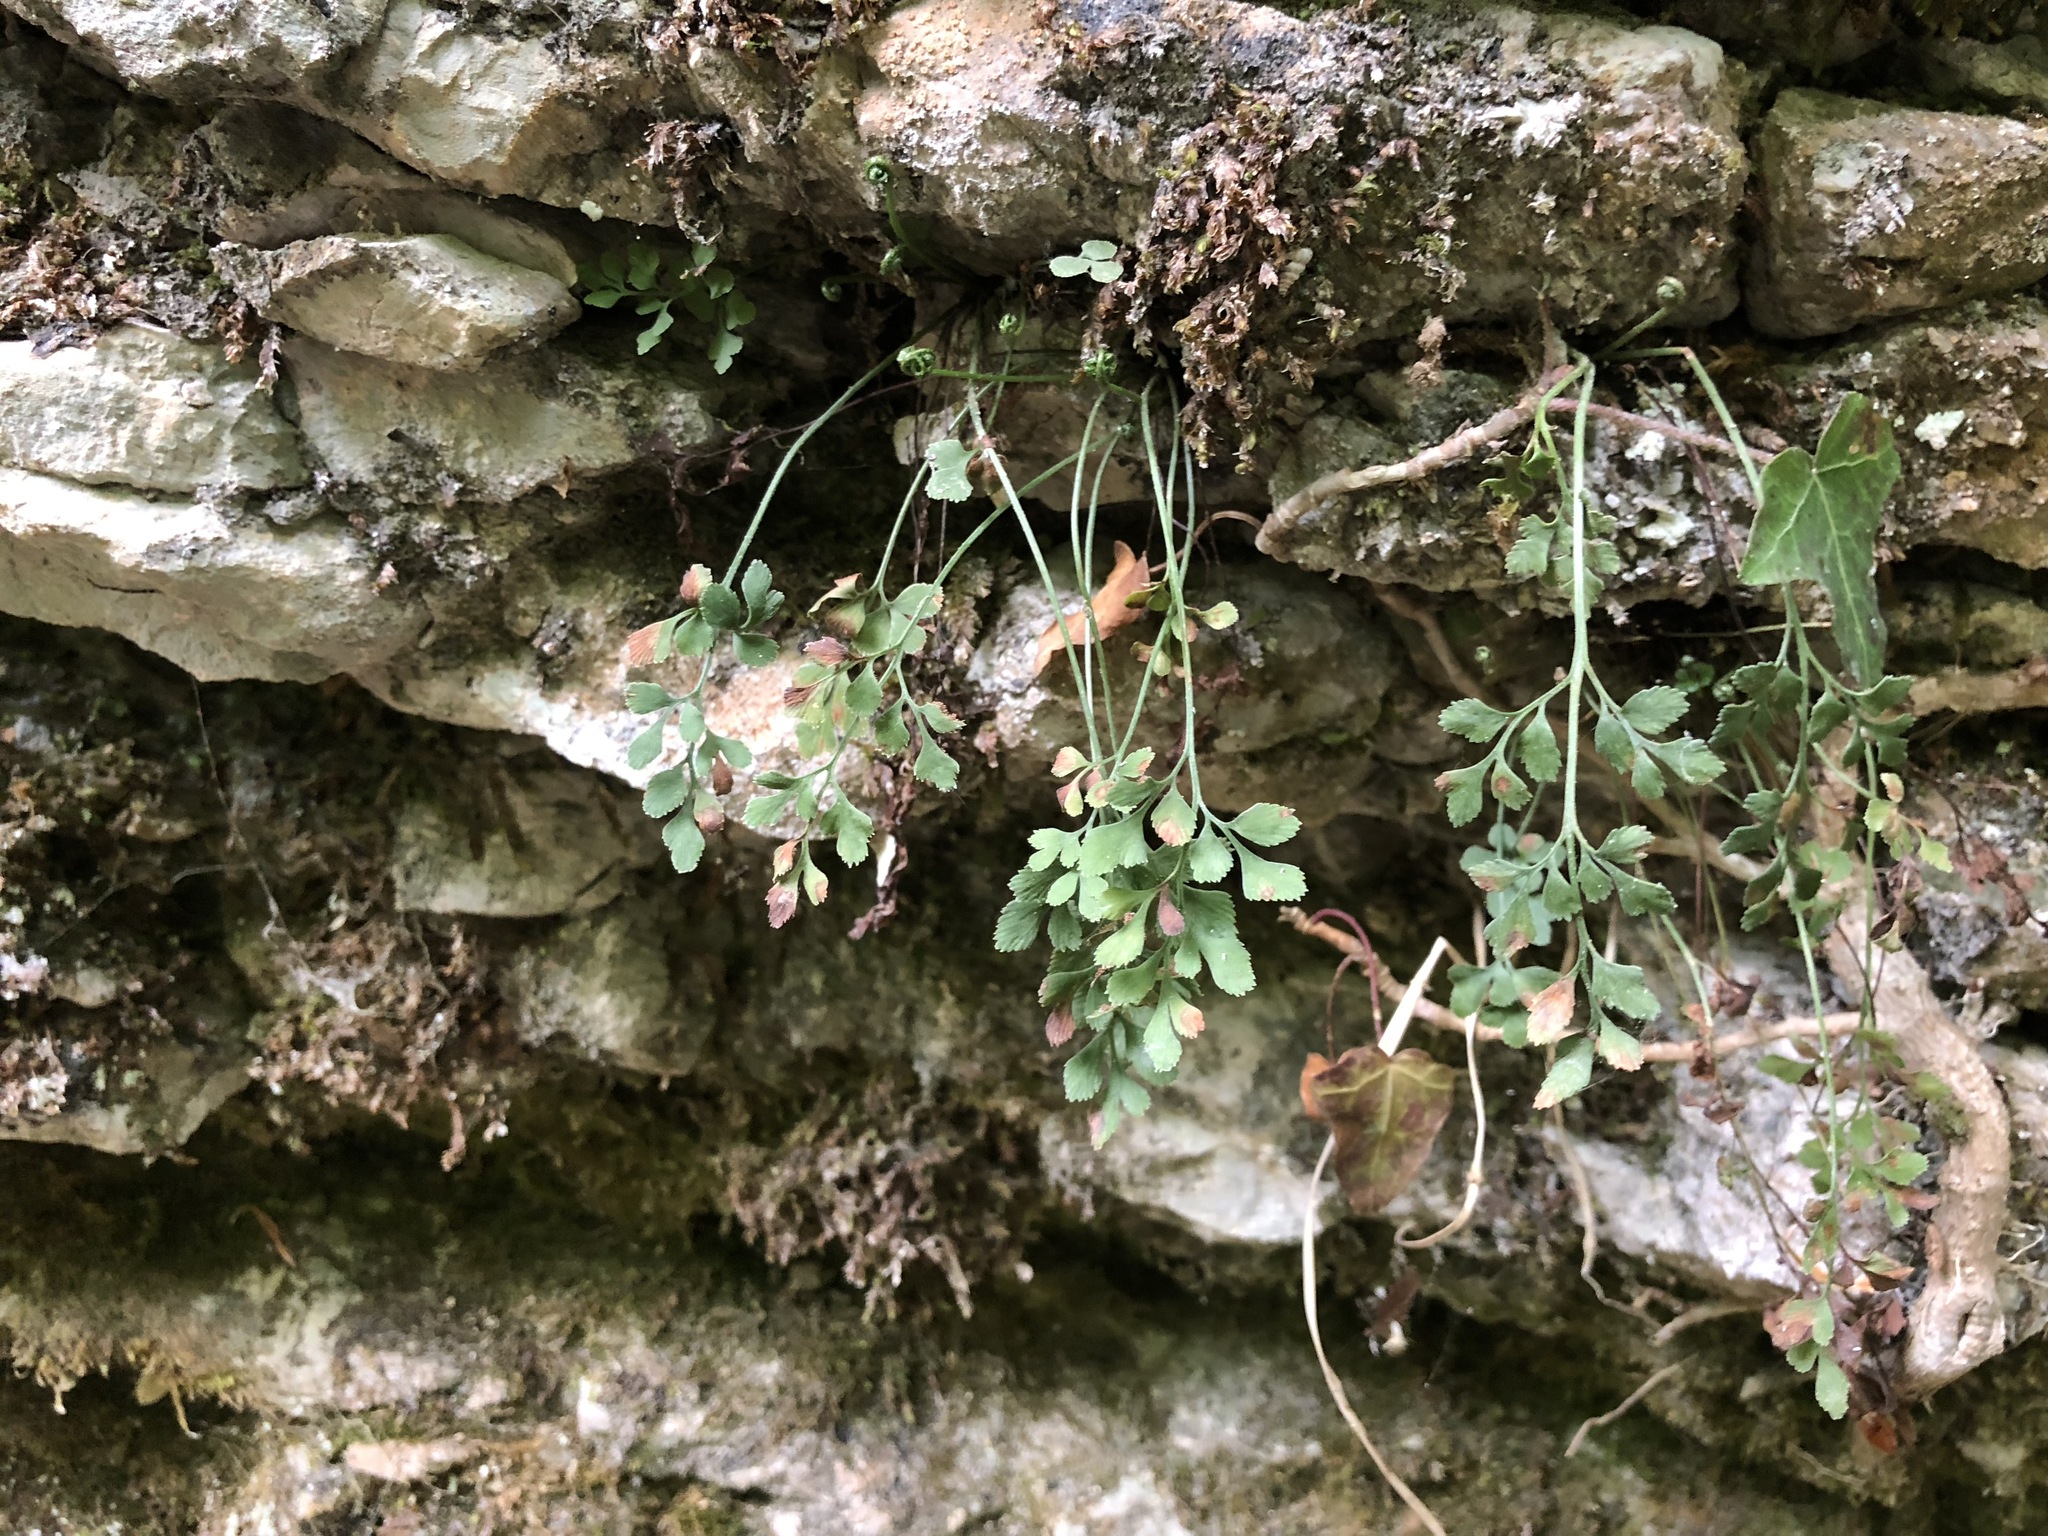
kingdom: Plantae
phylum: Tracheophyta
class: Polypodiopsida
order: Polypodiales
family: Aspleniaceae
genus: Asplenium
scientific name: Asplenium ruta-muraria
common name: Wall-rue
